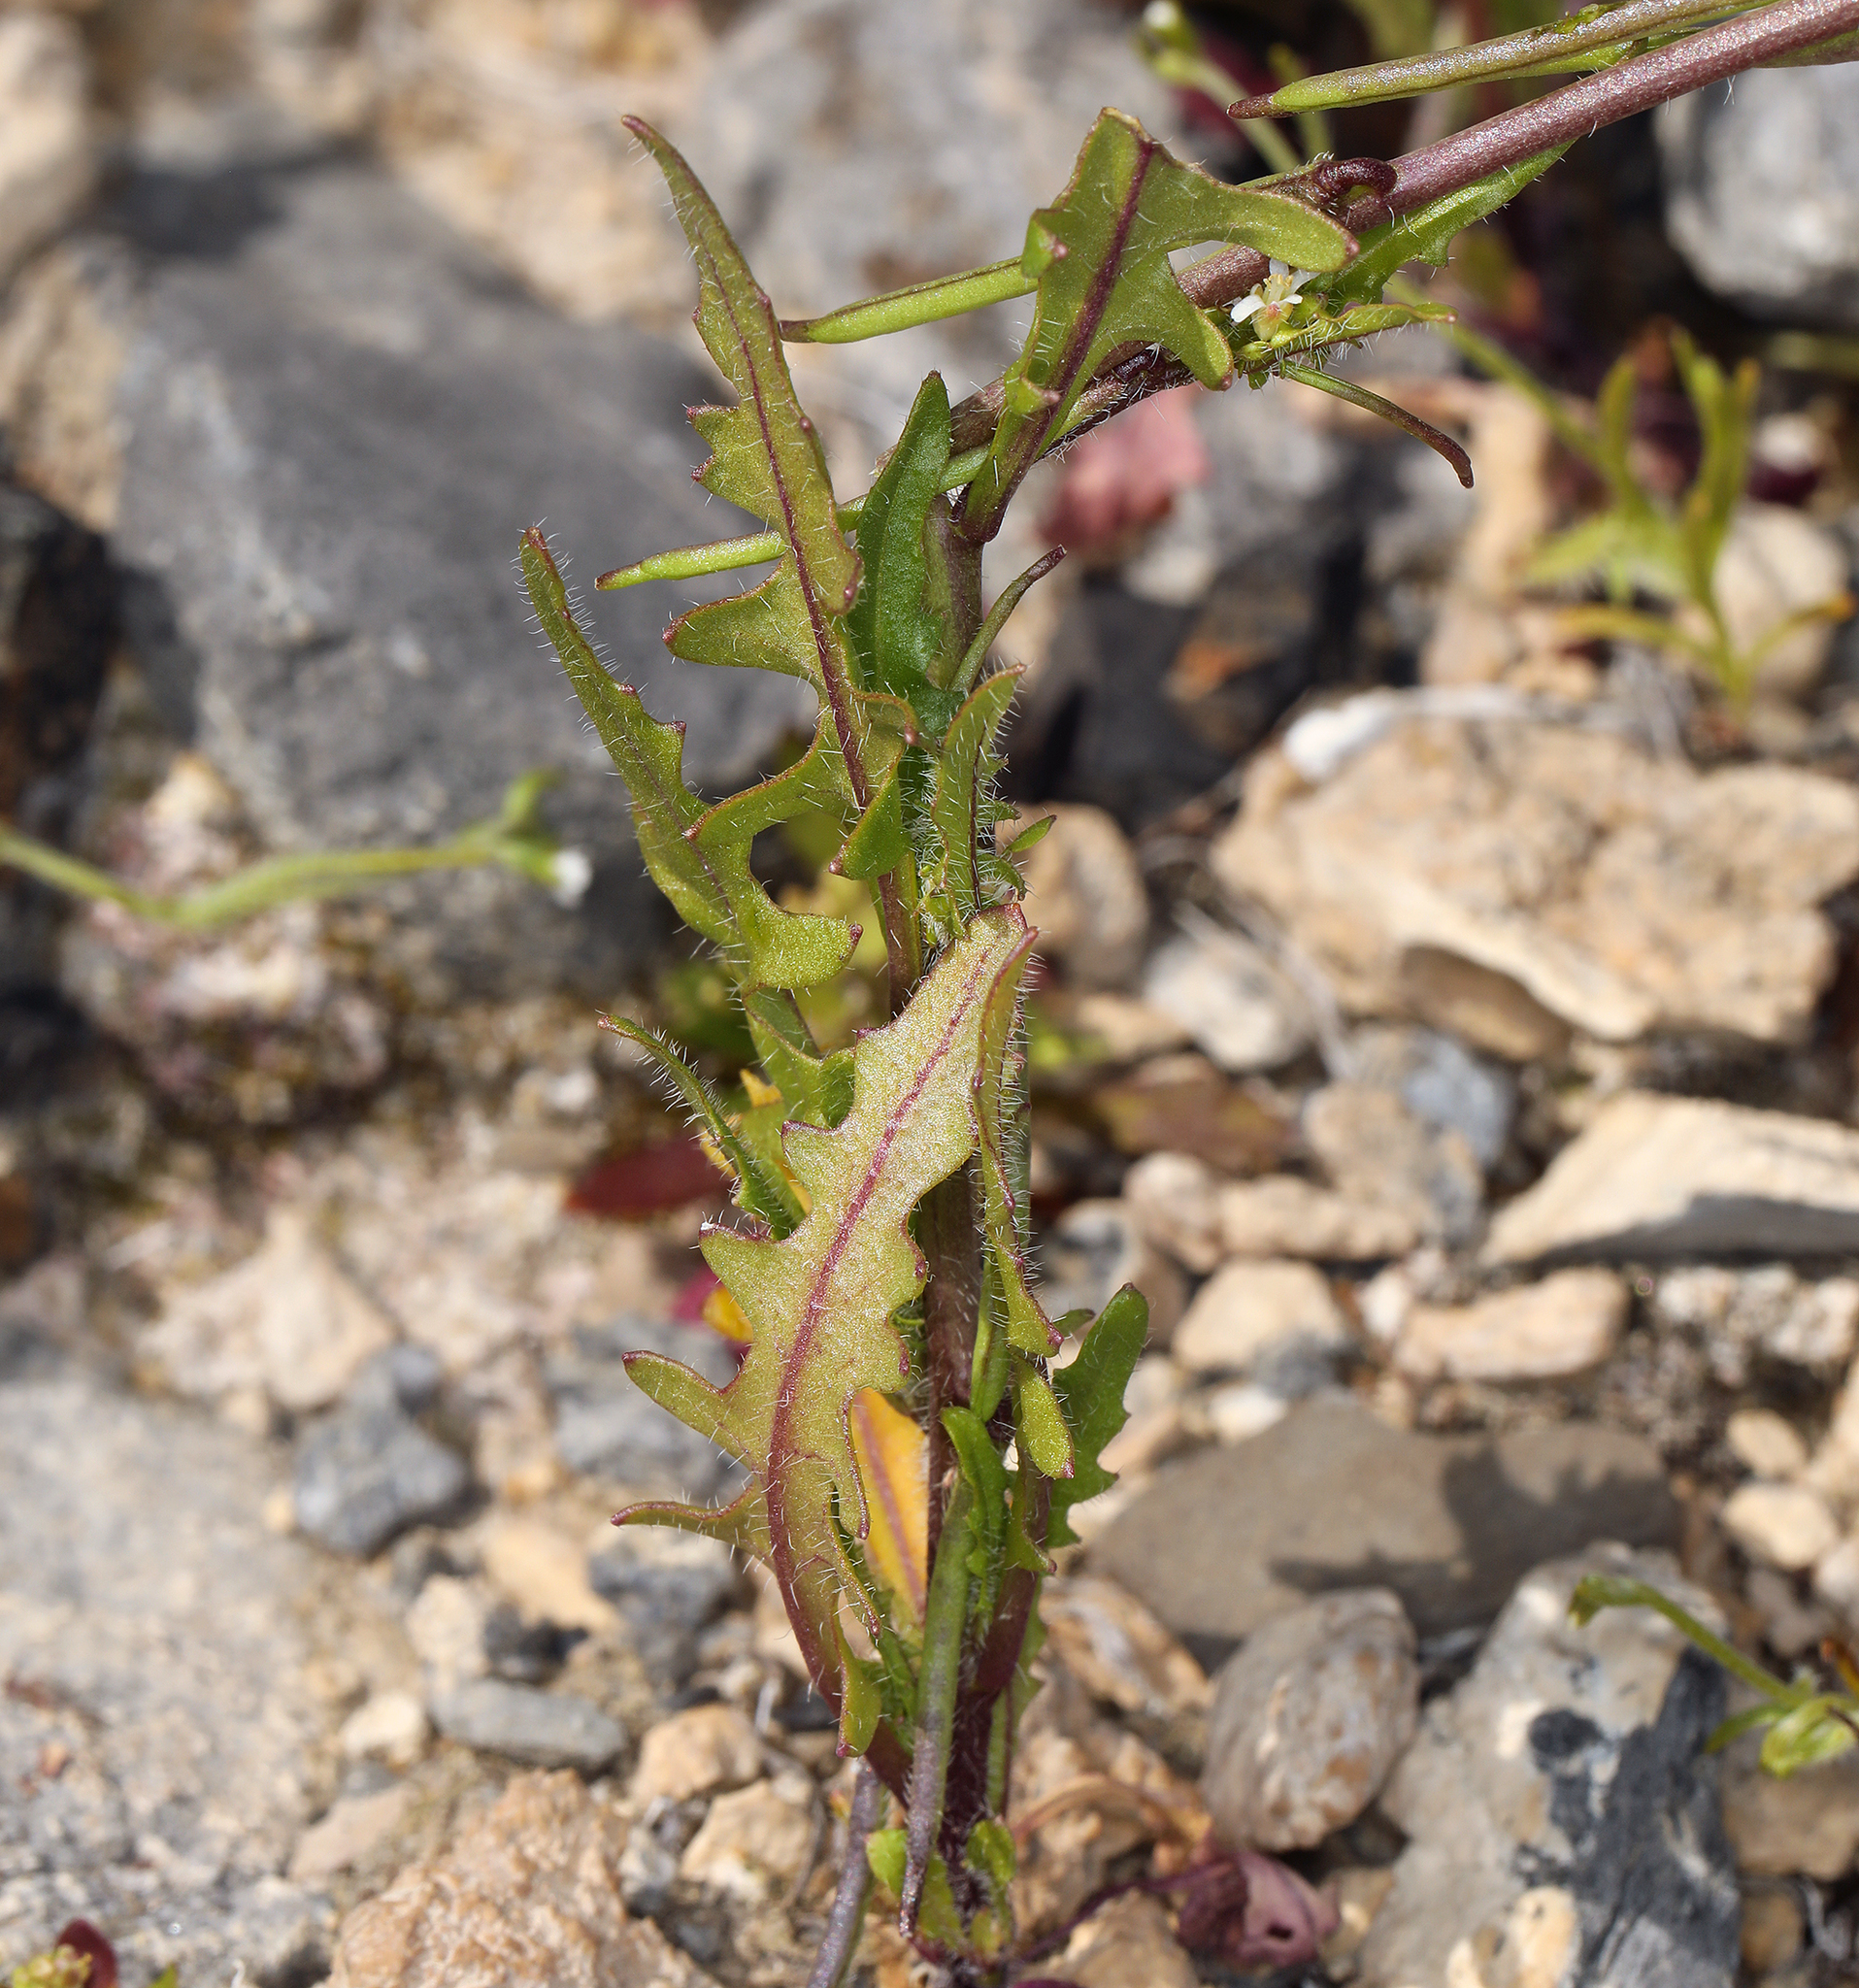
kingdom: Plantae
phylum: Tracheophyta
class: Magnoliopsida
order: Brassicales
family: Brassicaceae
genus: Streptanthus
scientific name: Streptanthus lasiophyllus
